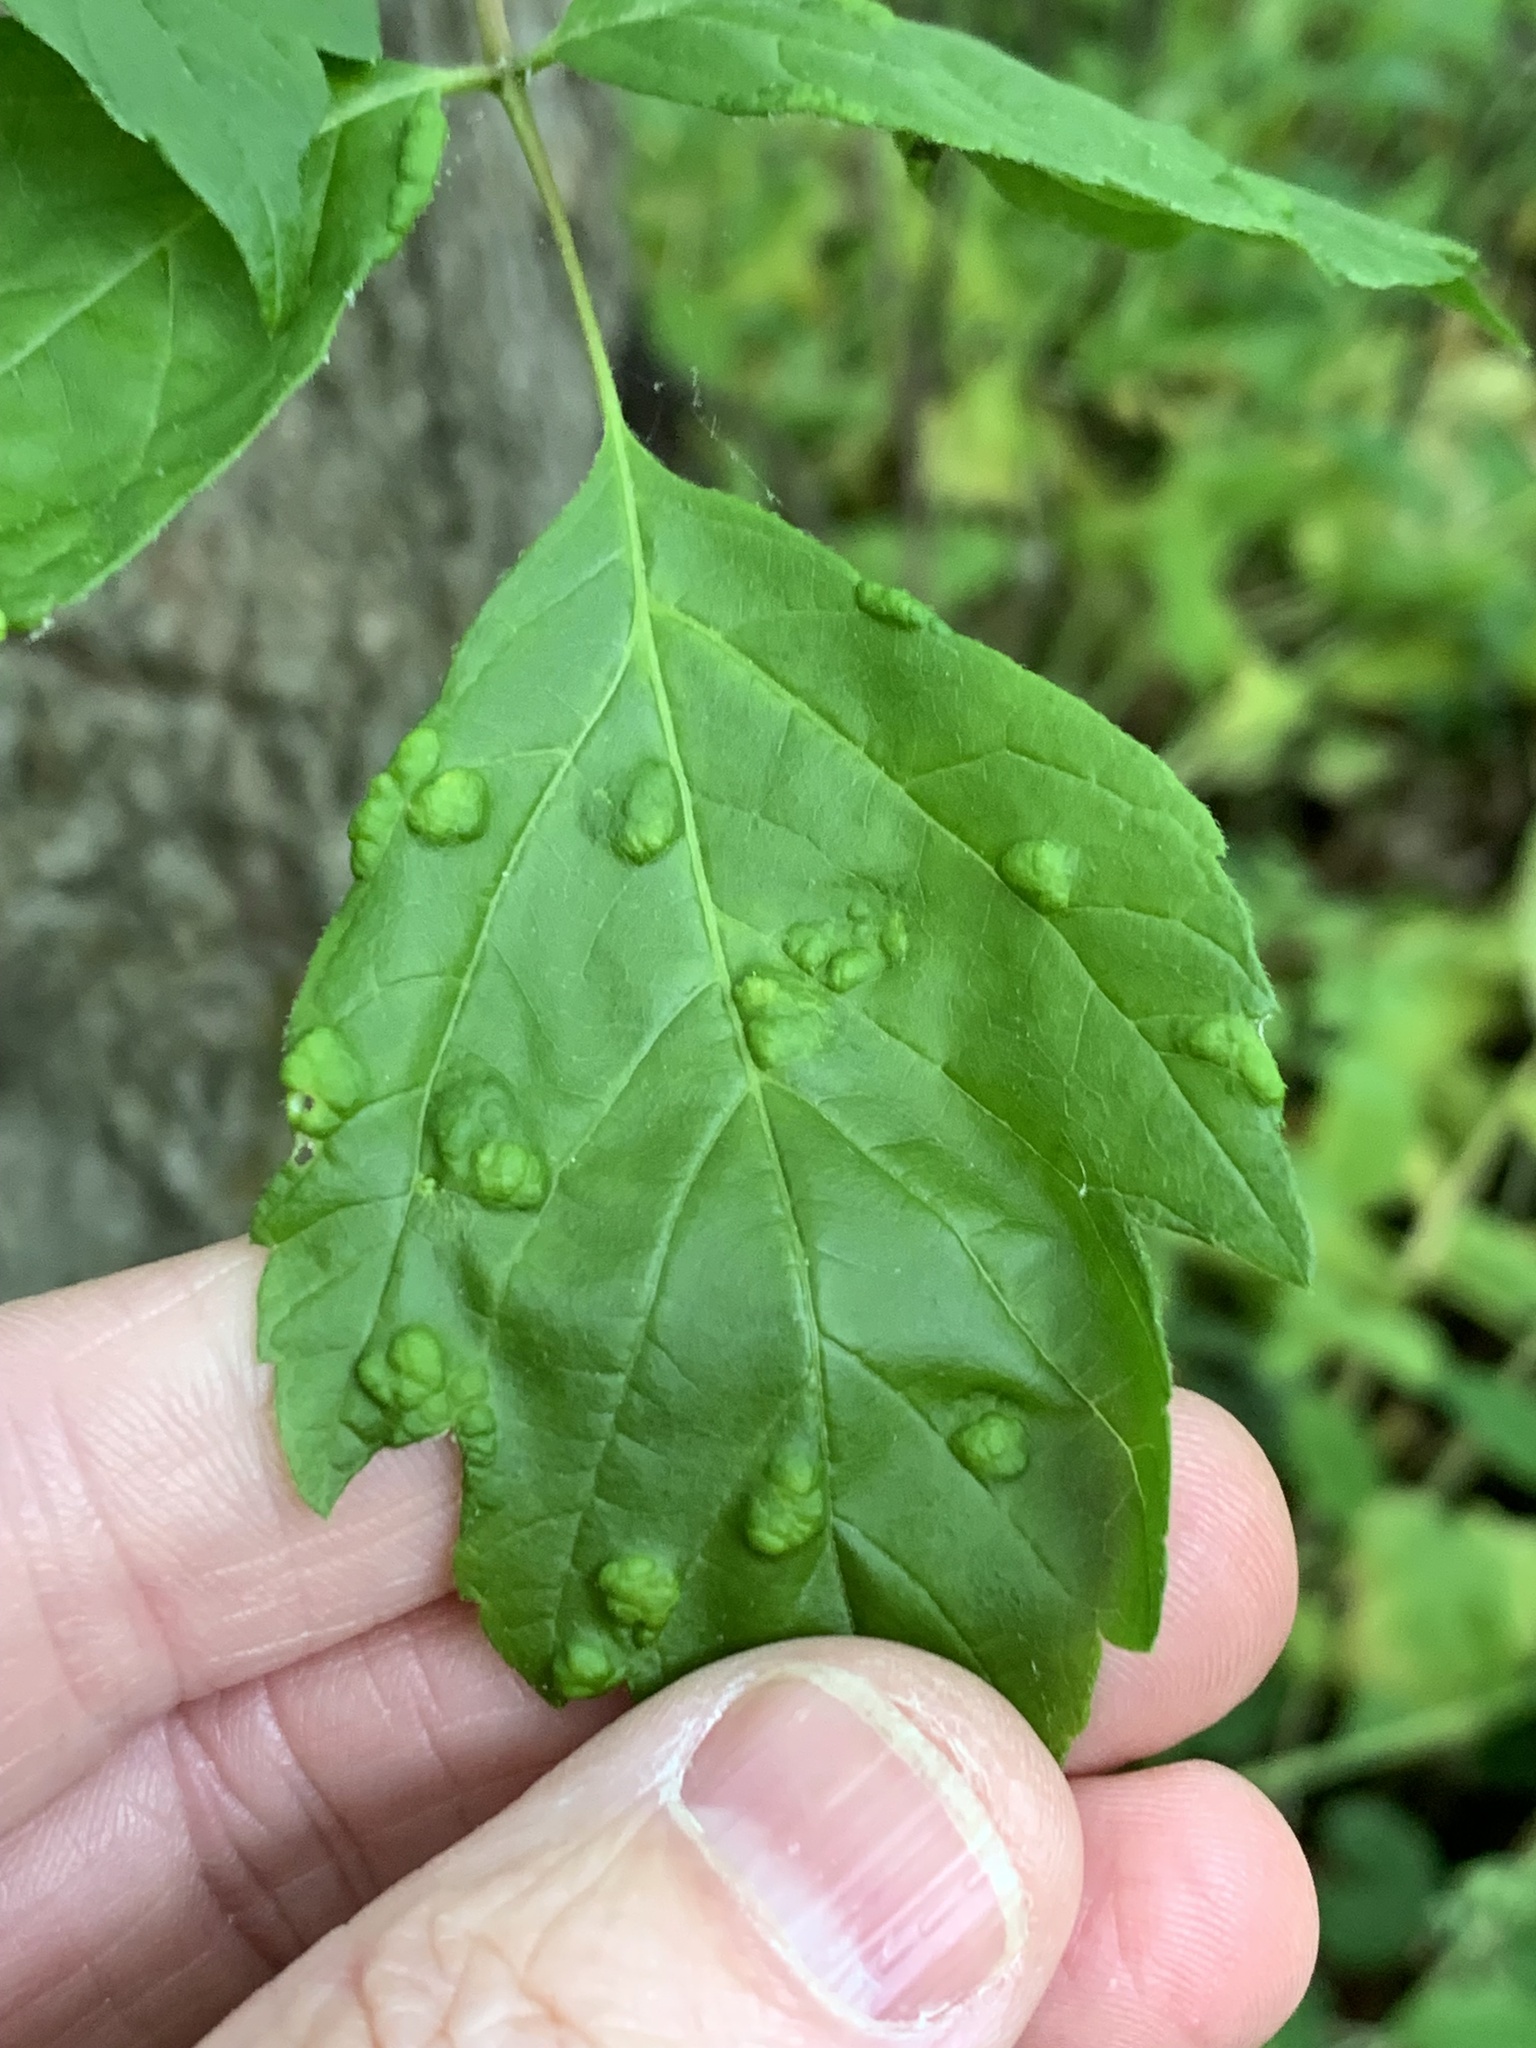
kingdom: Animalia
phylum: Arthropoda
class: Arachnida
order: Trombidiformes
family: Eriophyidae
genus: Aceria
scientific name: Aceria
